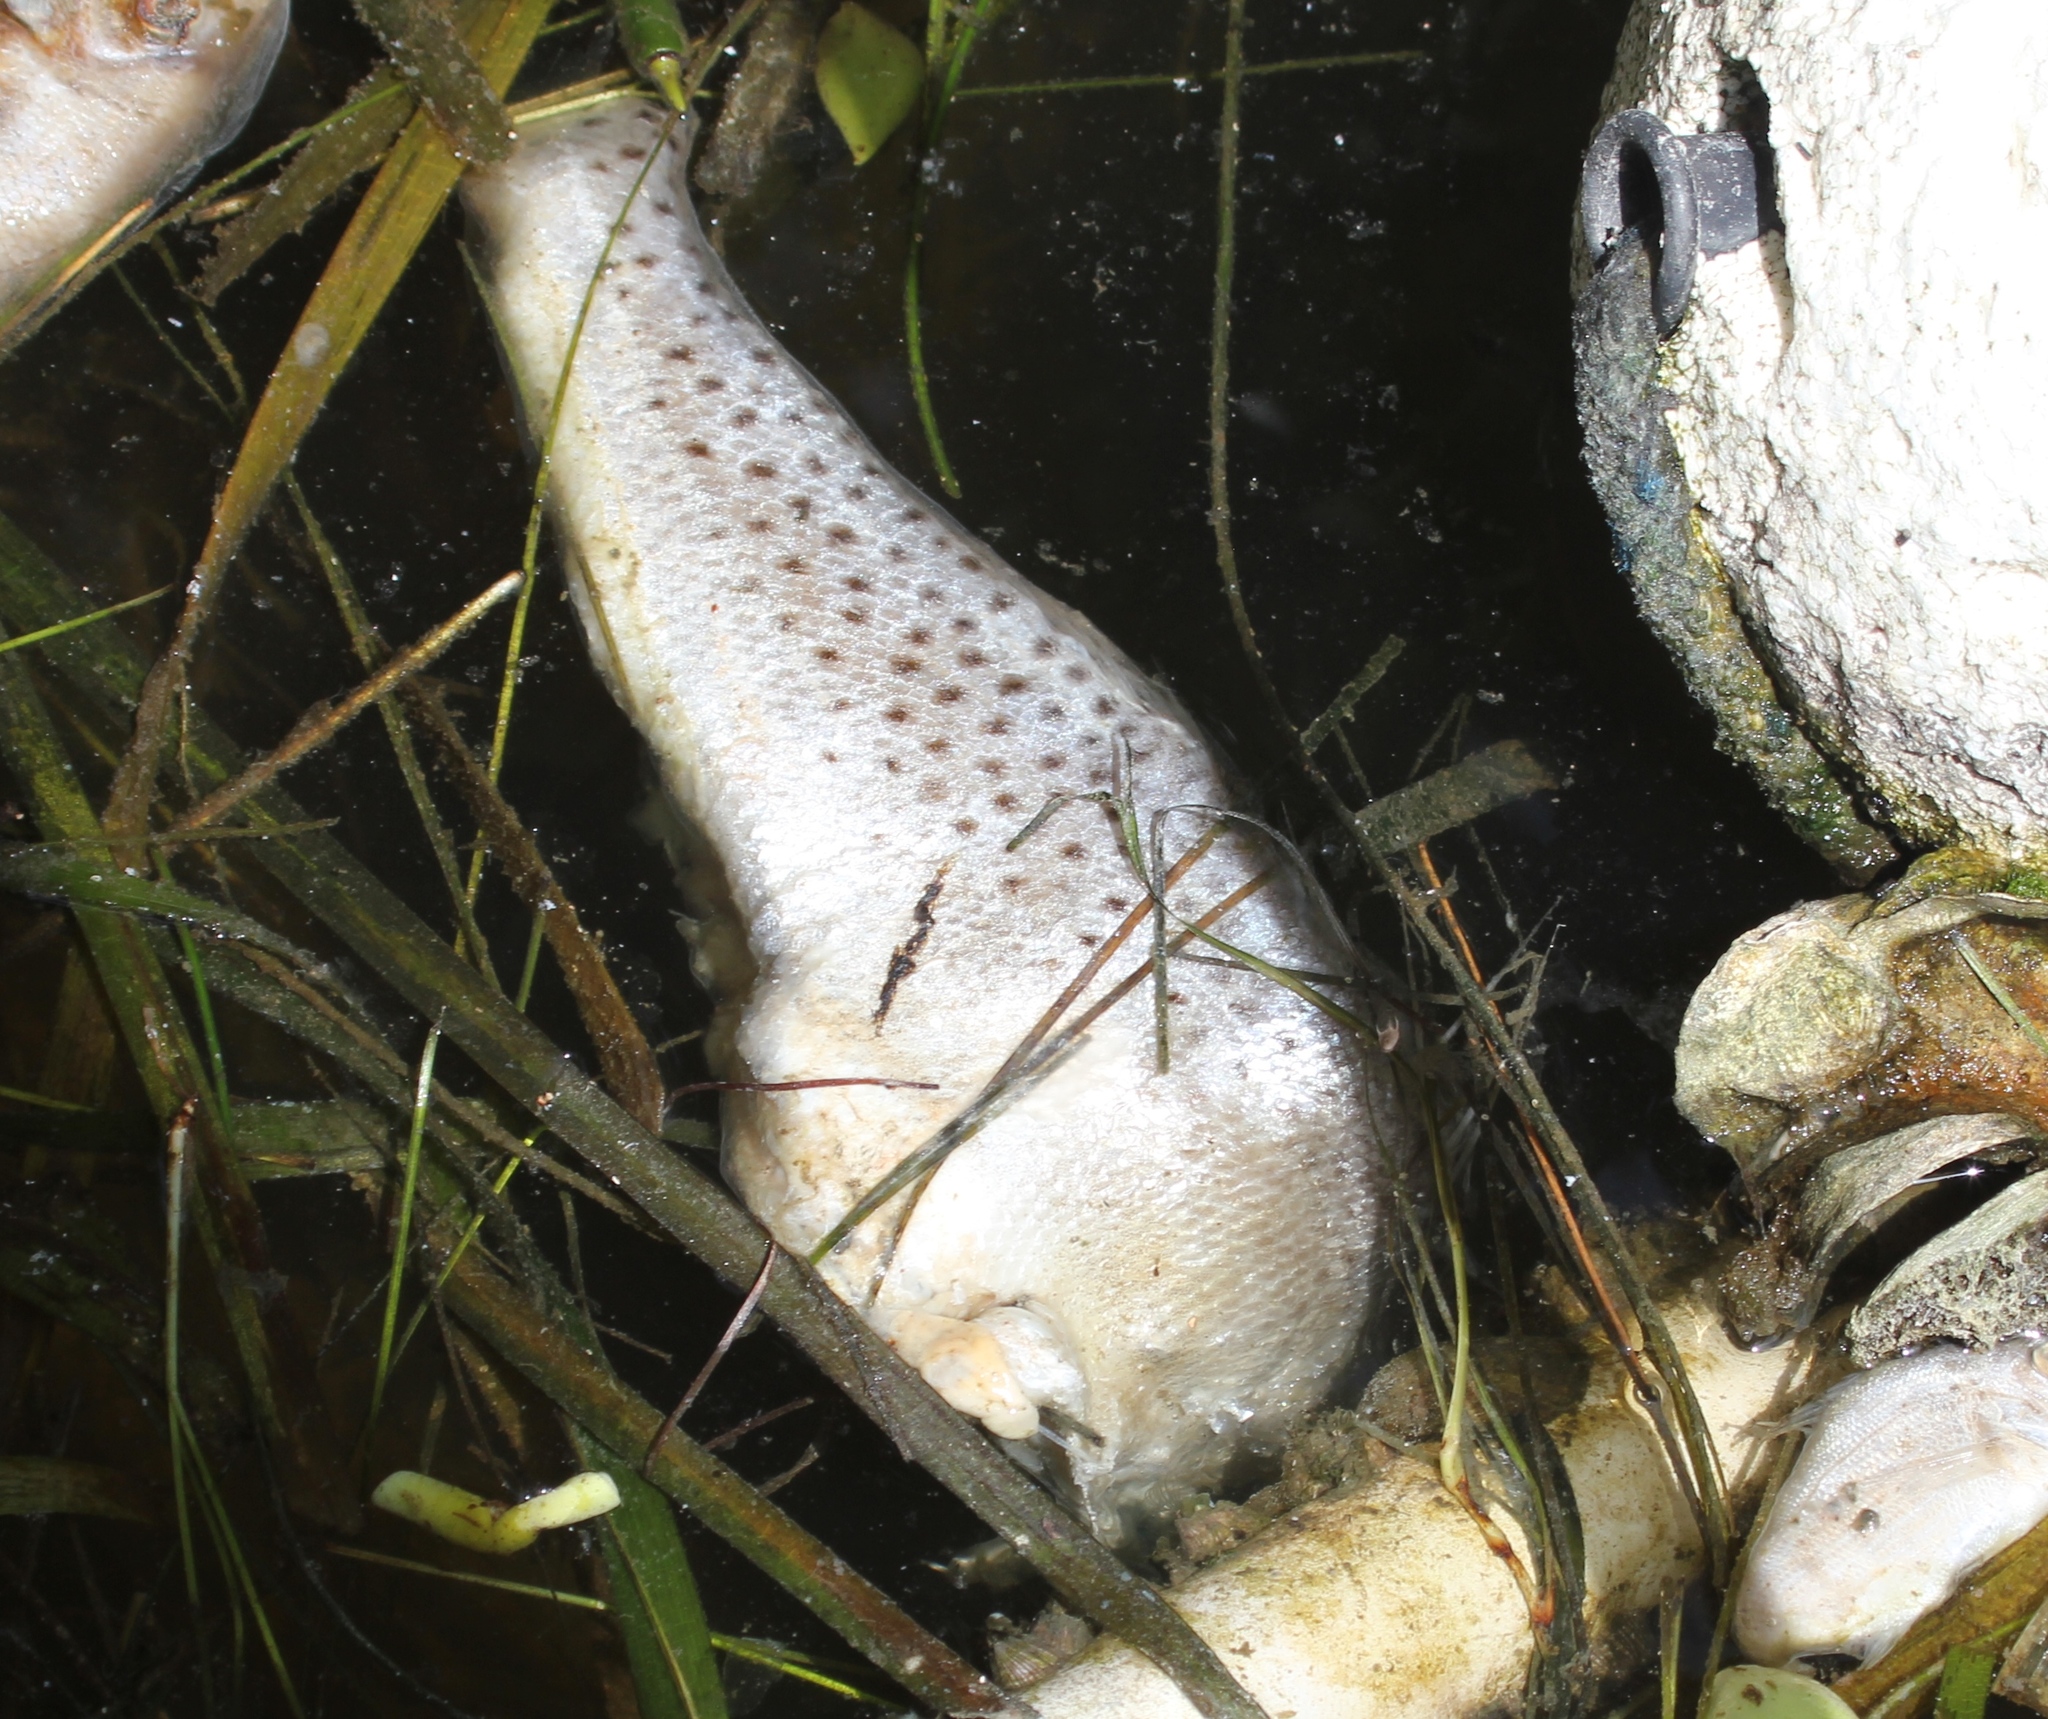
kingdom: Animalia
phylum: Chordata
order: Perciformes
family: Sciaenidae
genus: Cynoscion
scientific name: Cynoscion nebulosus
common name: Spotted seatrout
